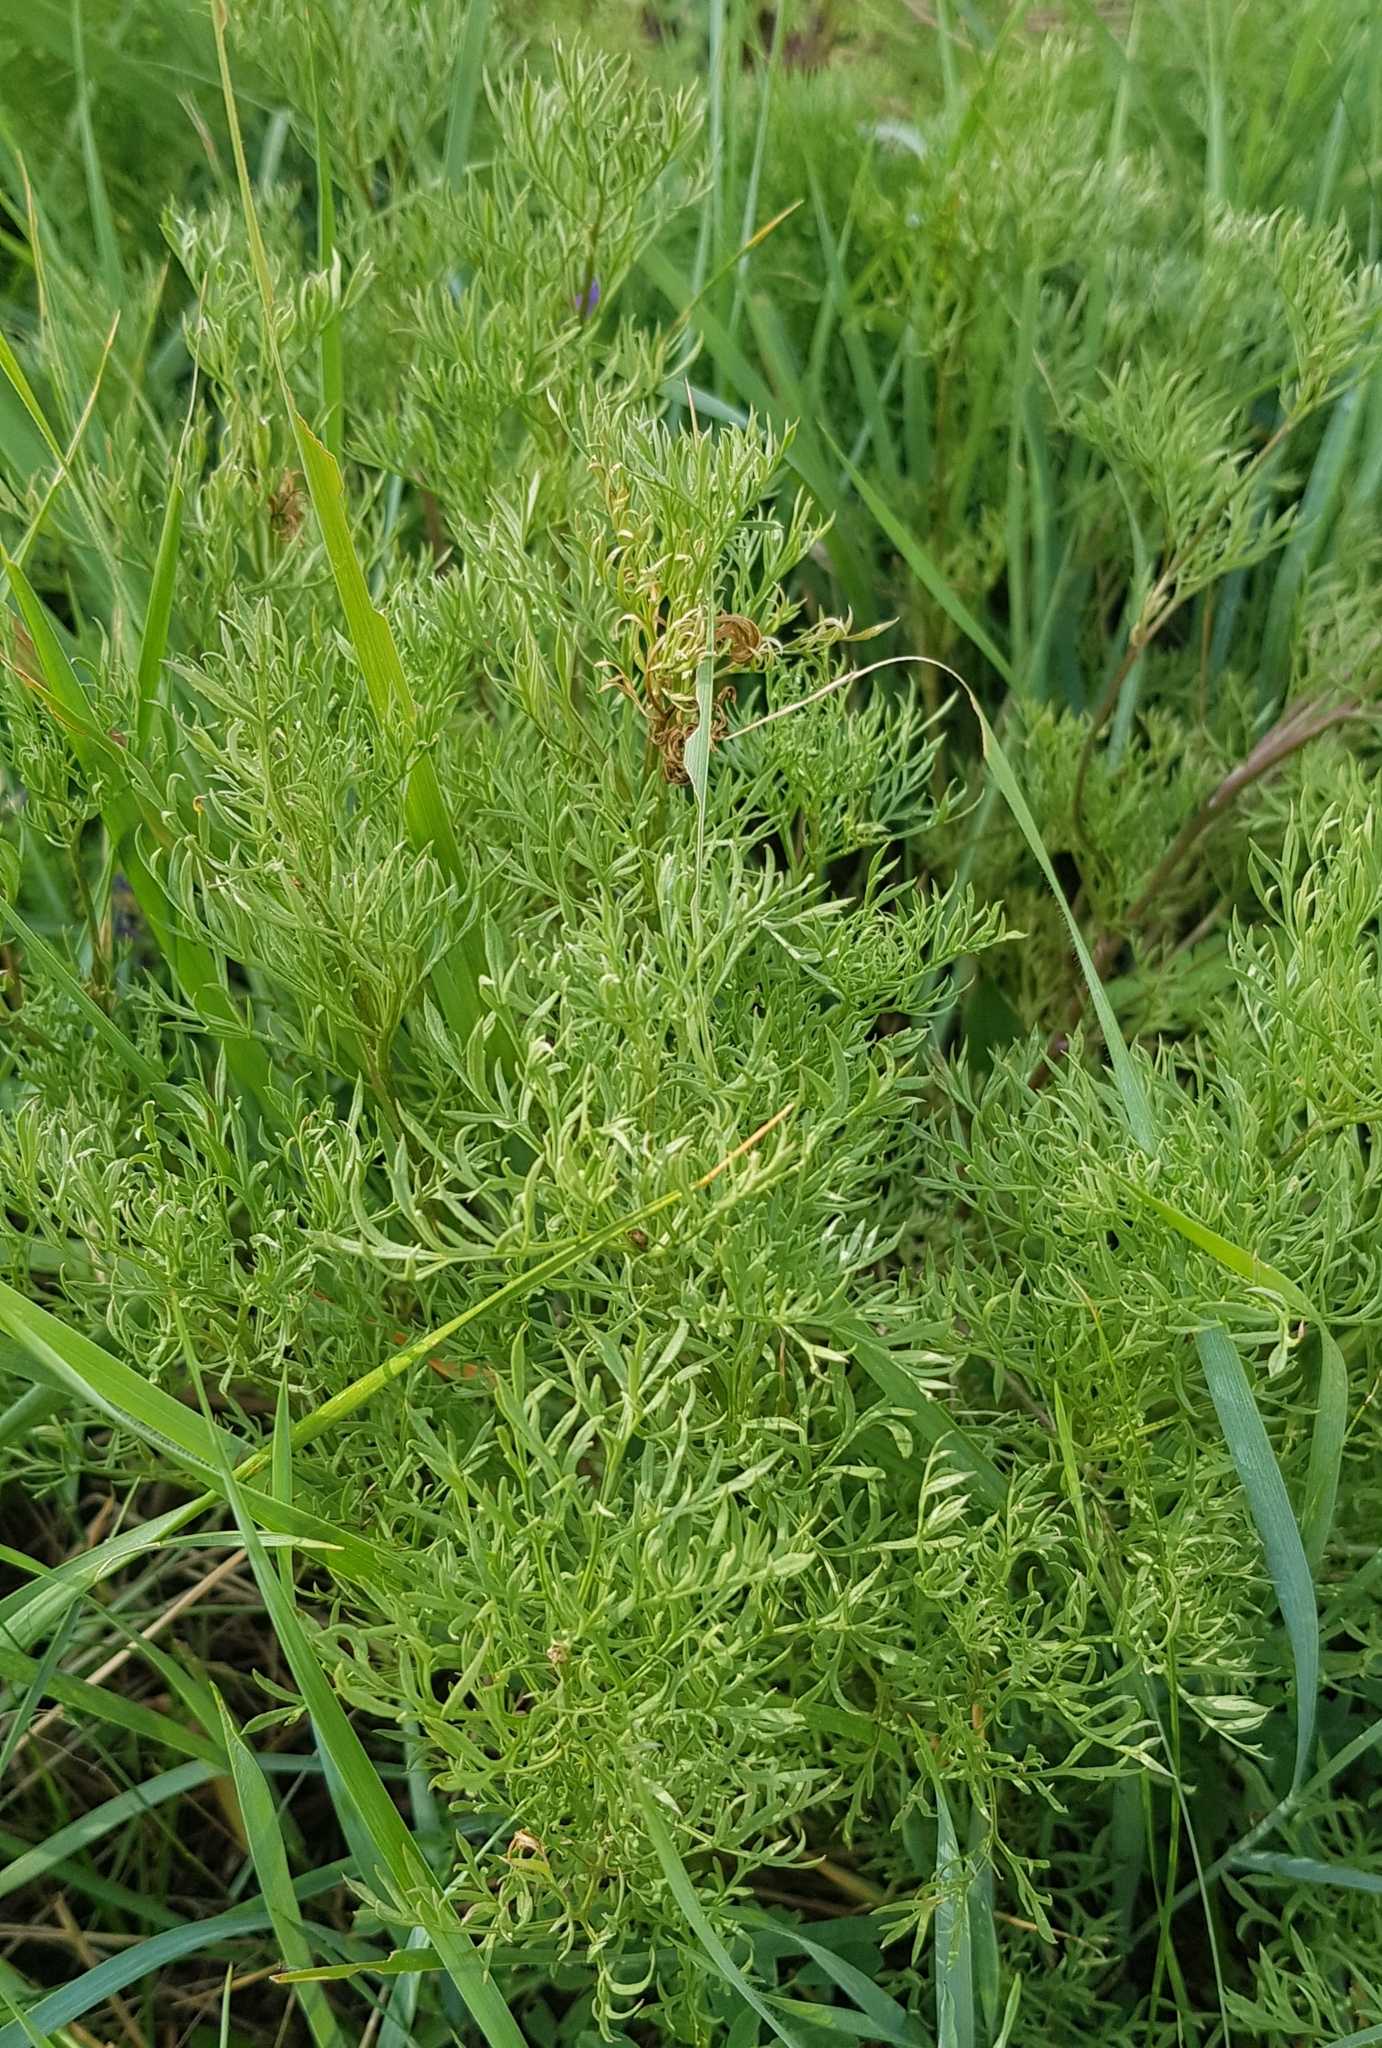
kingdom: Plantae
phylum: Tracheophyta
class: Magnoliopsida
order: Ranunculales
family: Ranunculaceae
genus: Adonis
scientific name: Adonis
